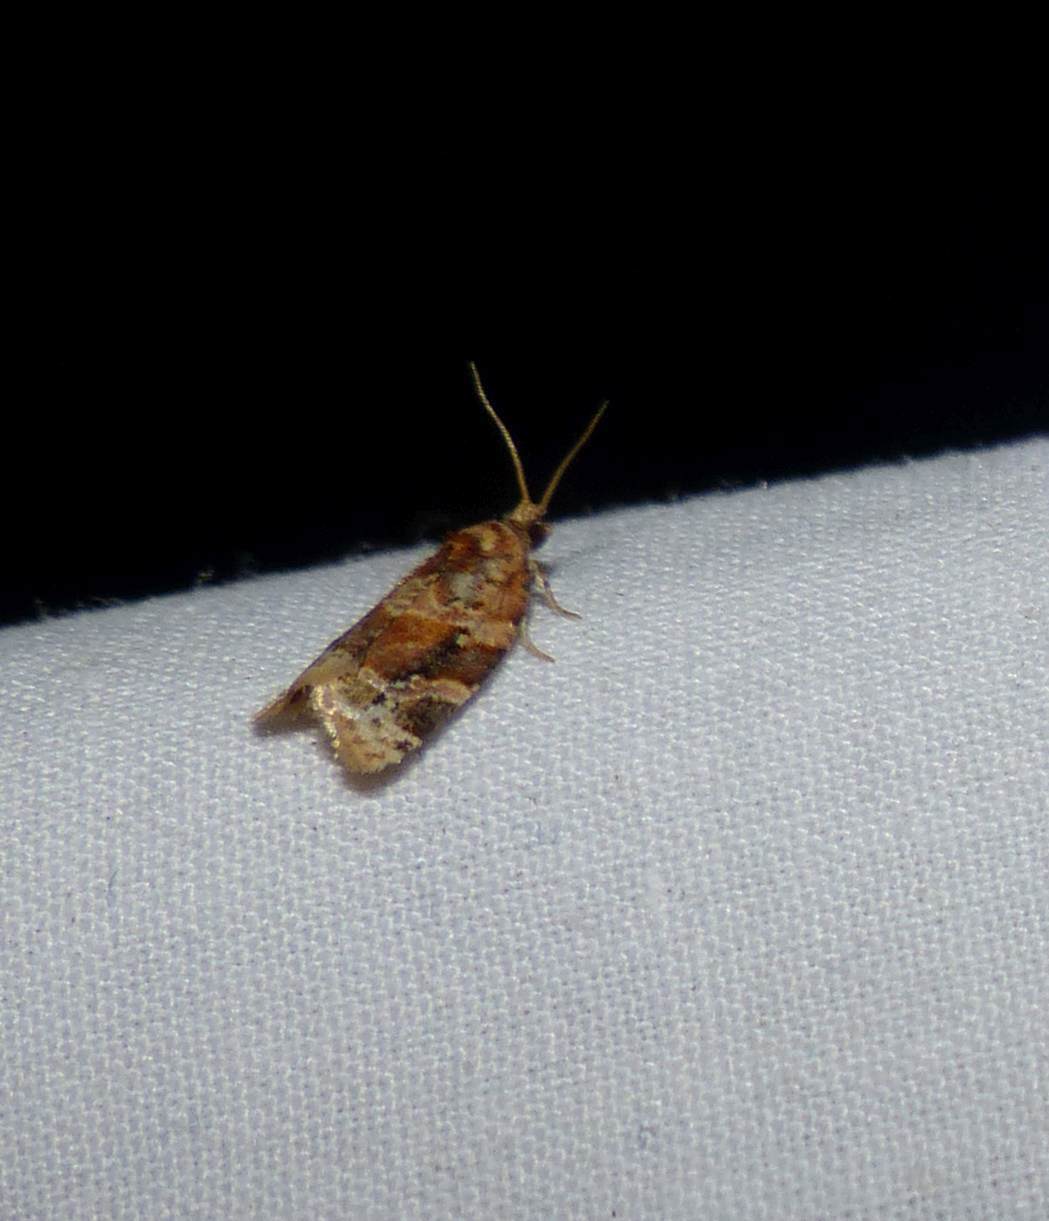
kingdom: Animalia
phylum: Arthropoda
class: Insecta
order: Lepidoptera
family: Tortricidae
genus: Argyrotaenia
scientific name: Argyrotaenia velutinana
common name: Red-banded leafroller moth
